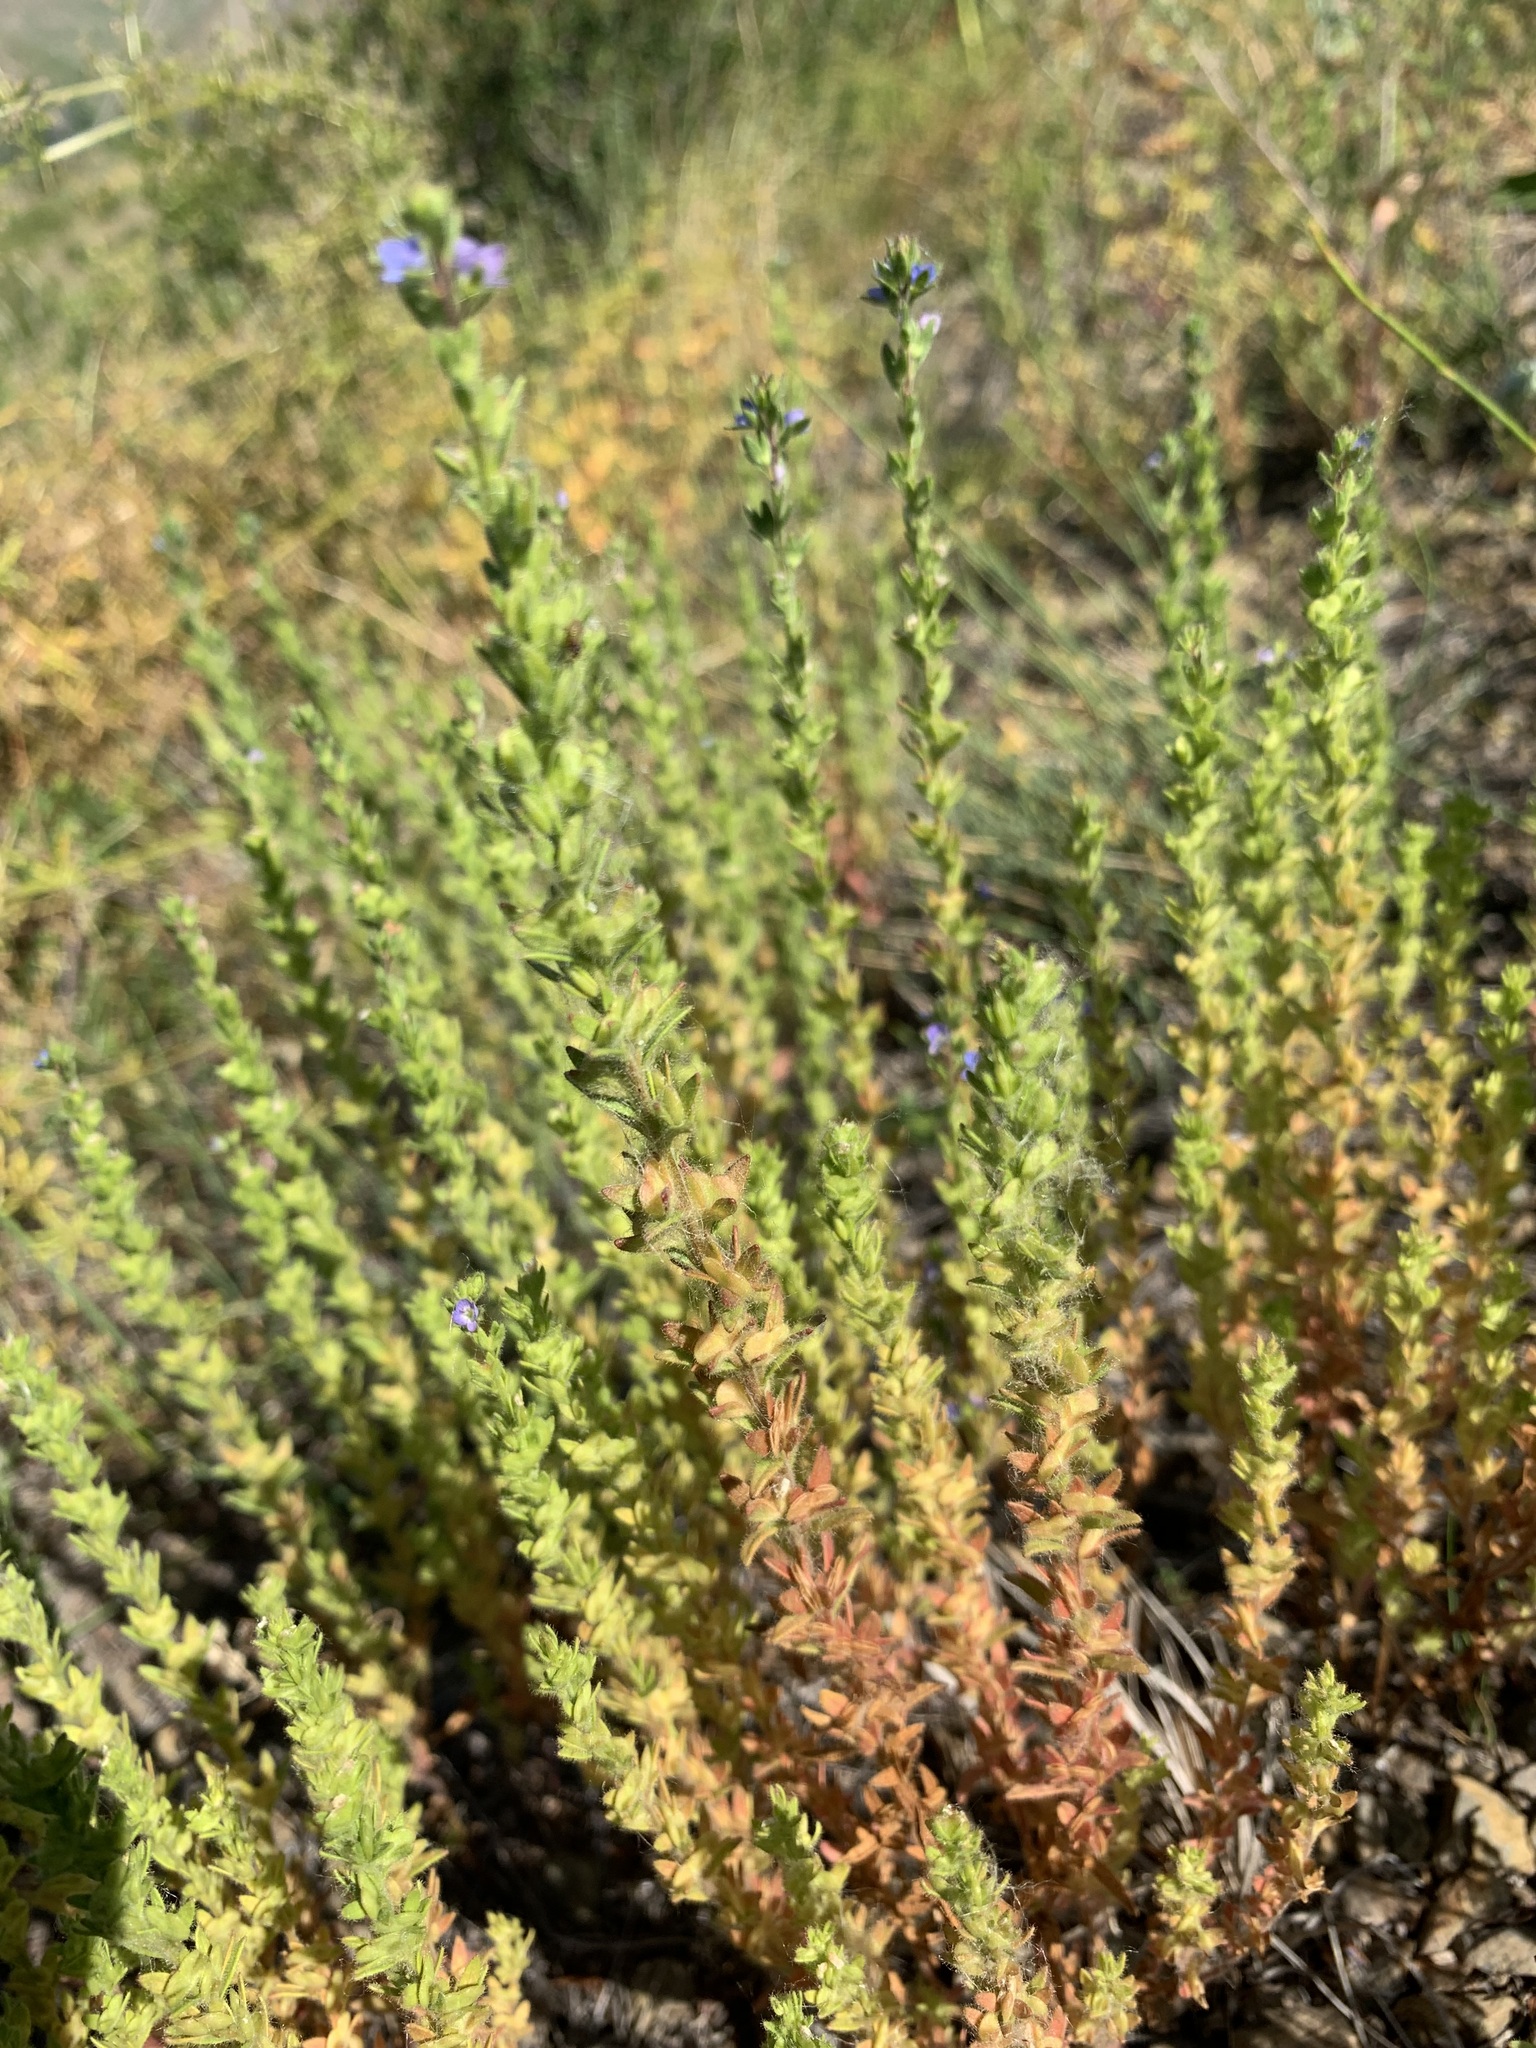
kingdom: Plantae
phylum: Tracheophyta
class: Magnoliopsida
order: Lamiales
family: Plantaginaceae
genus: Veronica
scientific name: Veronica dillenii
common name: Dillenius' speedwell
